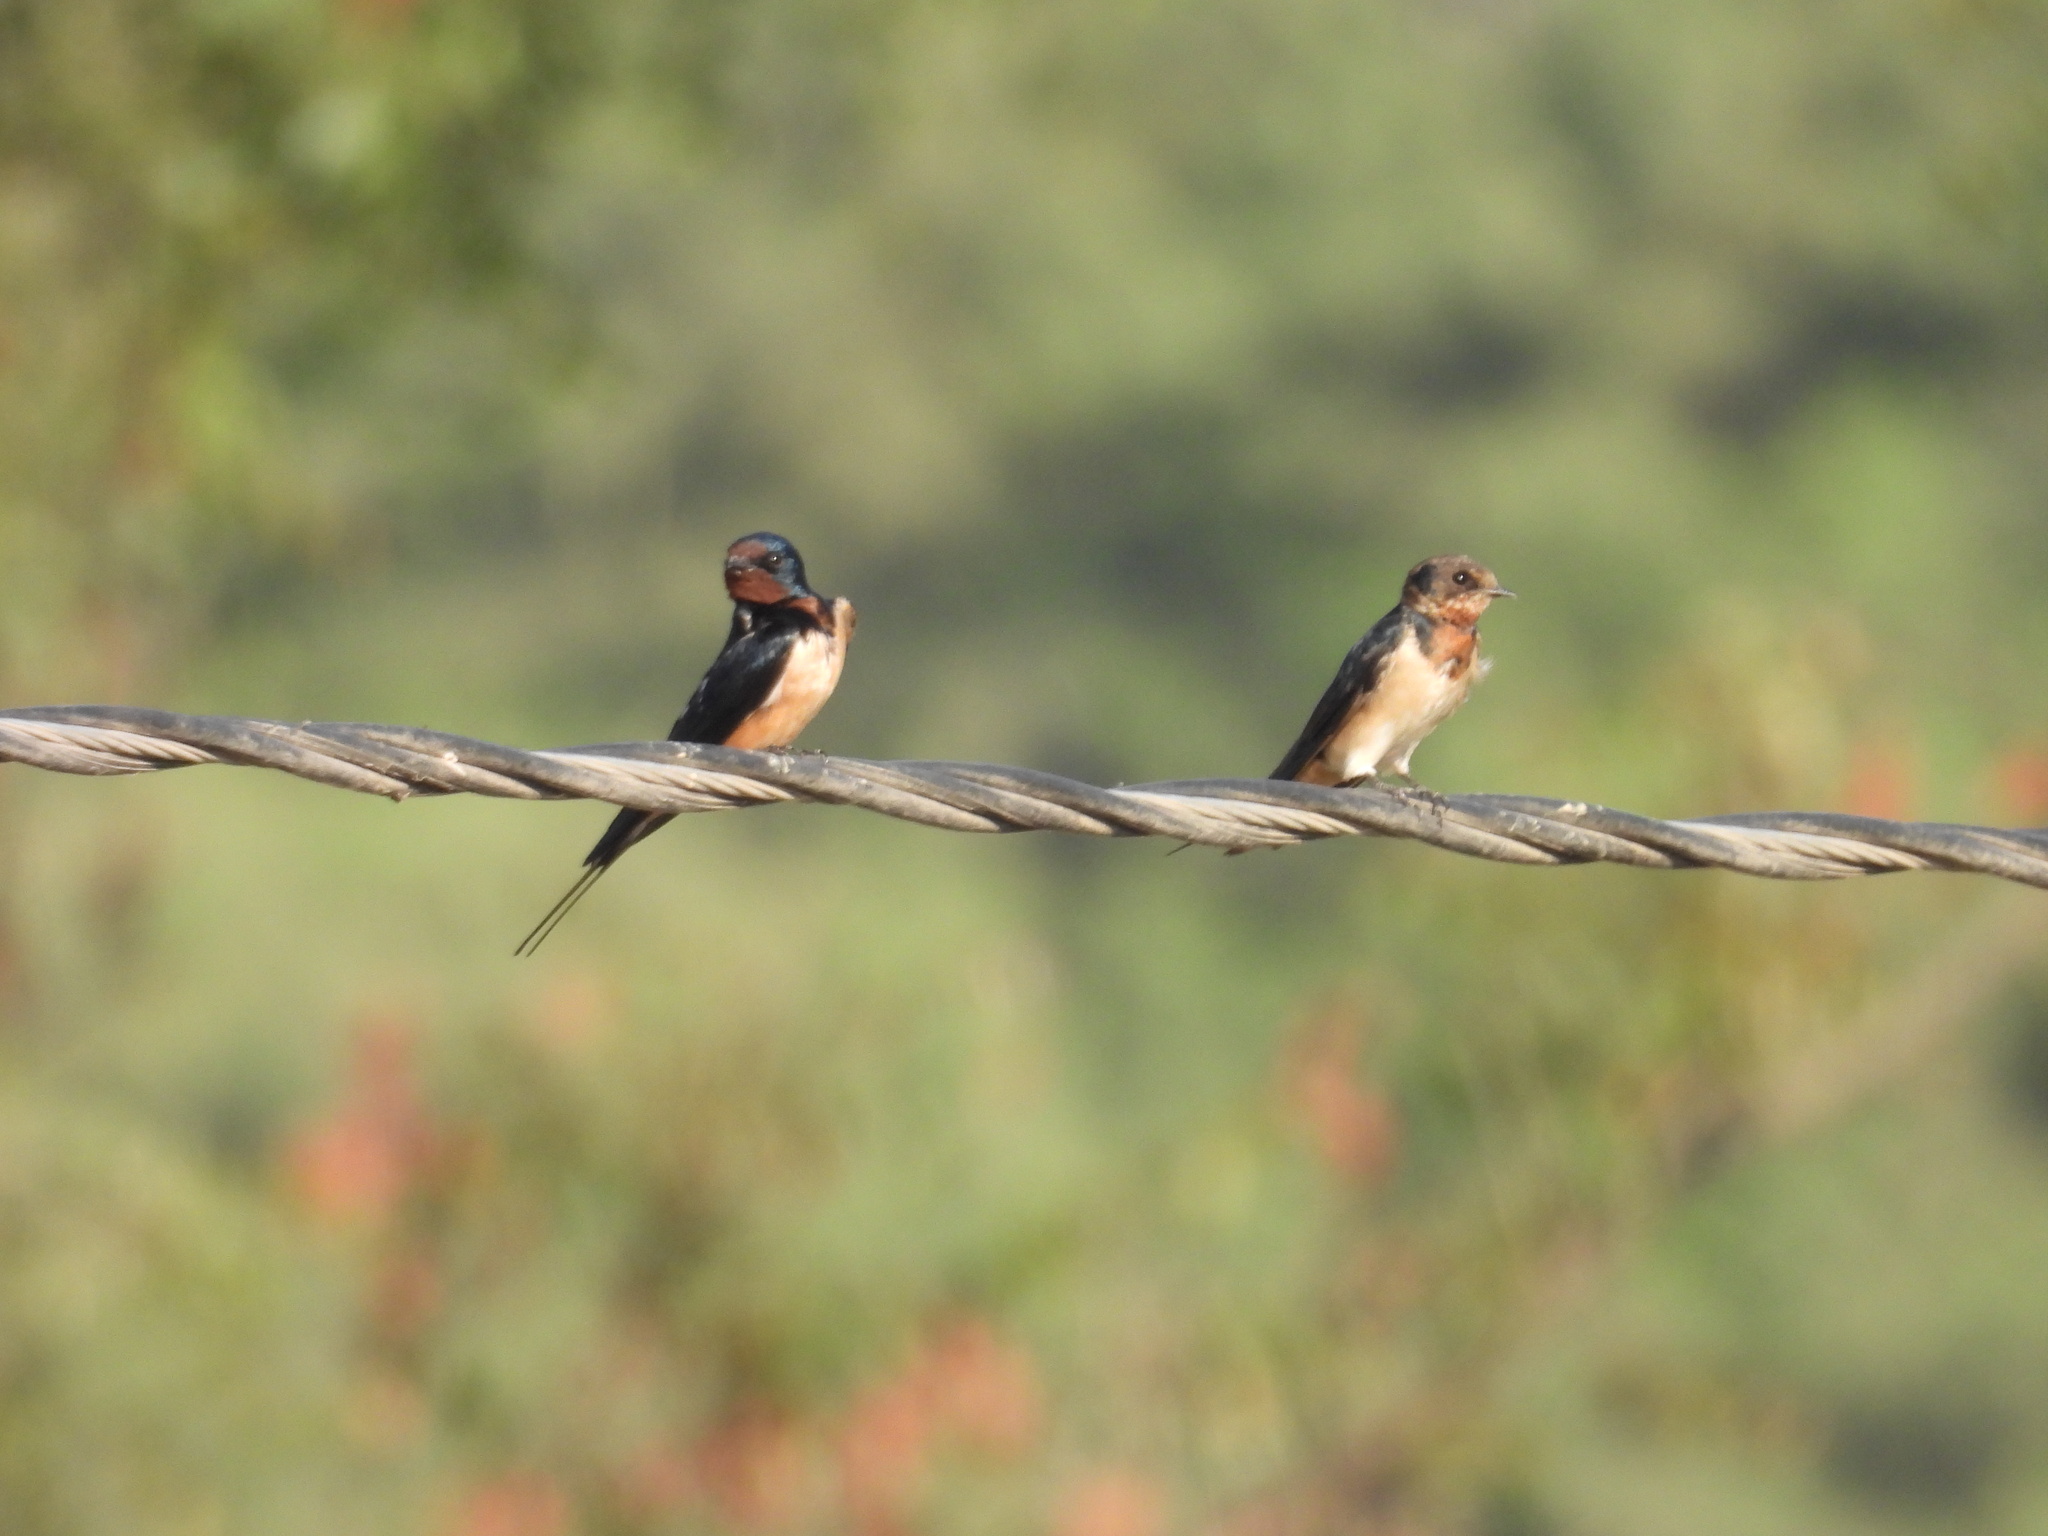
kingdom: Animalia
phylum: Chordata
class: Aves
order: Passeriformes
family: Hirundinidae
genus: Hirundo
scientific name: Hirundo rustica
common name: Barn swallow
